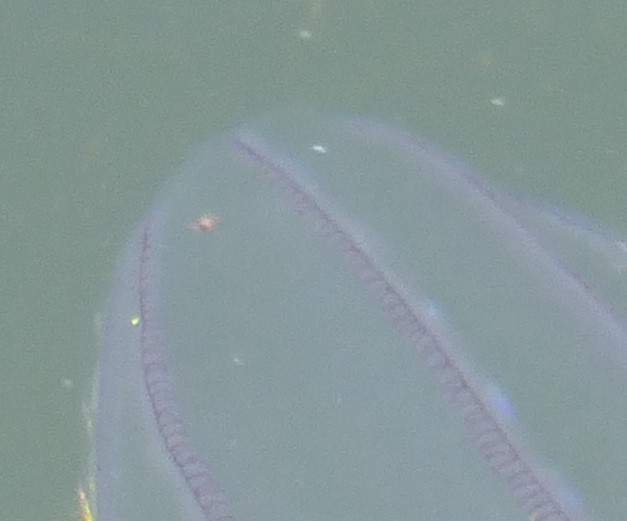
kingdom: Animalia
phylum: Ctenophora
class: Nuda
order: Beroida
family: Beroidae
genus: Beroe
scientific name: Beroe cucumis
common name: Beroe
